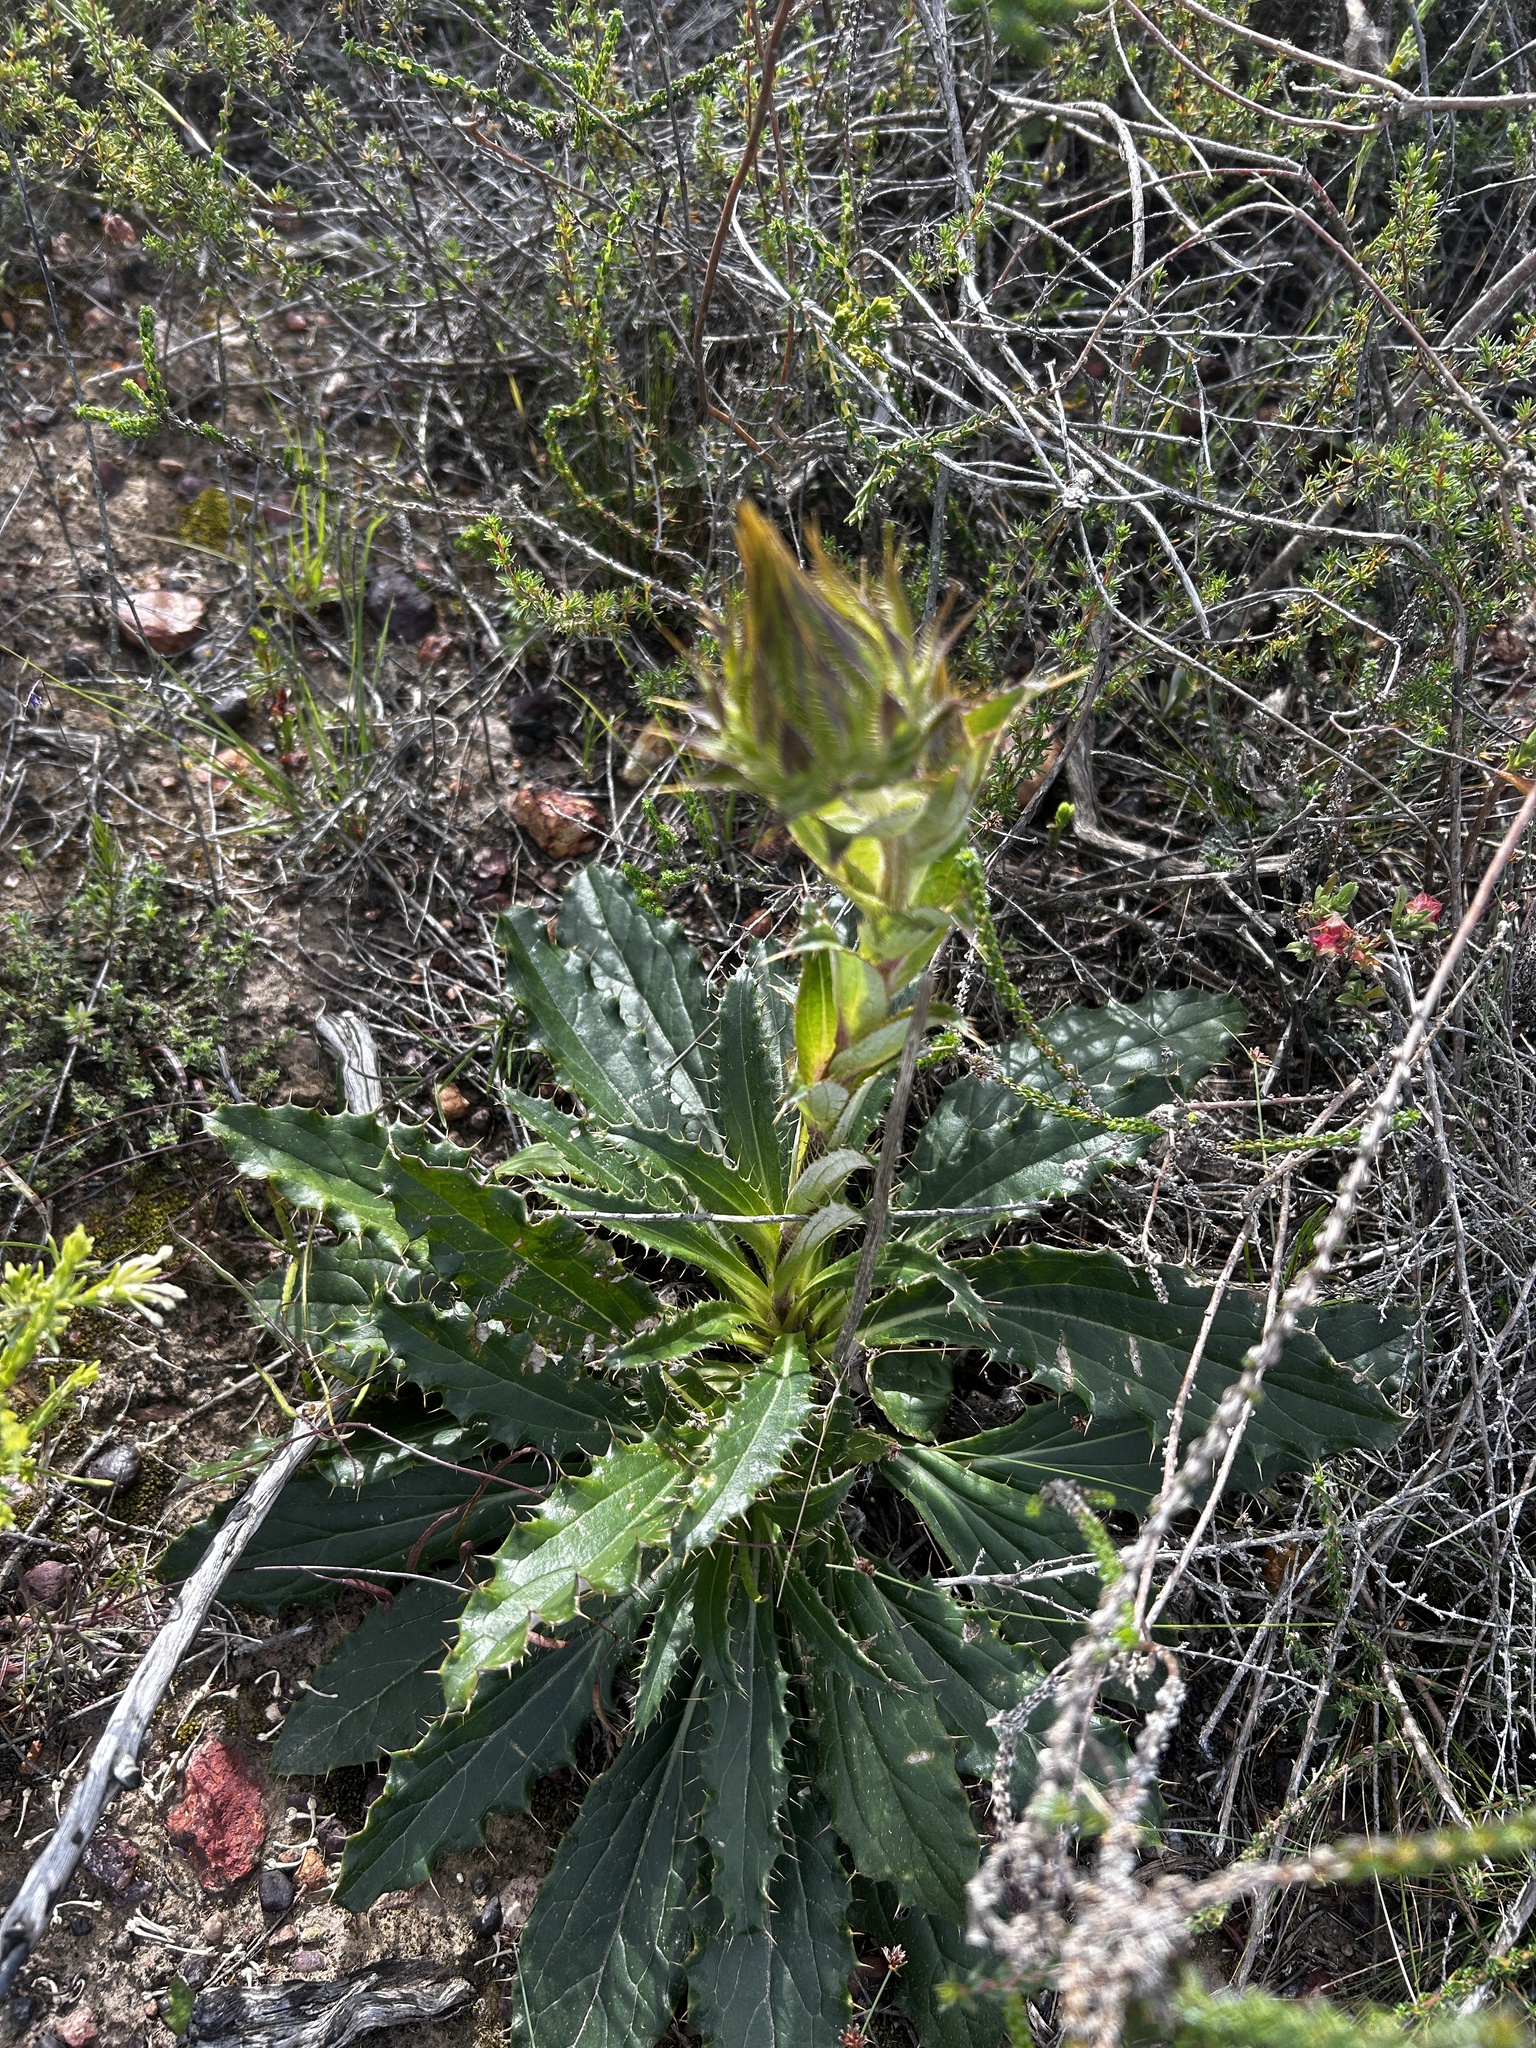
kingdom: Plantae
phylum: Tracheophyta
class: Magnoliopsida
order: Asterales
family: Asteraceae
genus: Berkheya
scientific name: Berkheya armata
